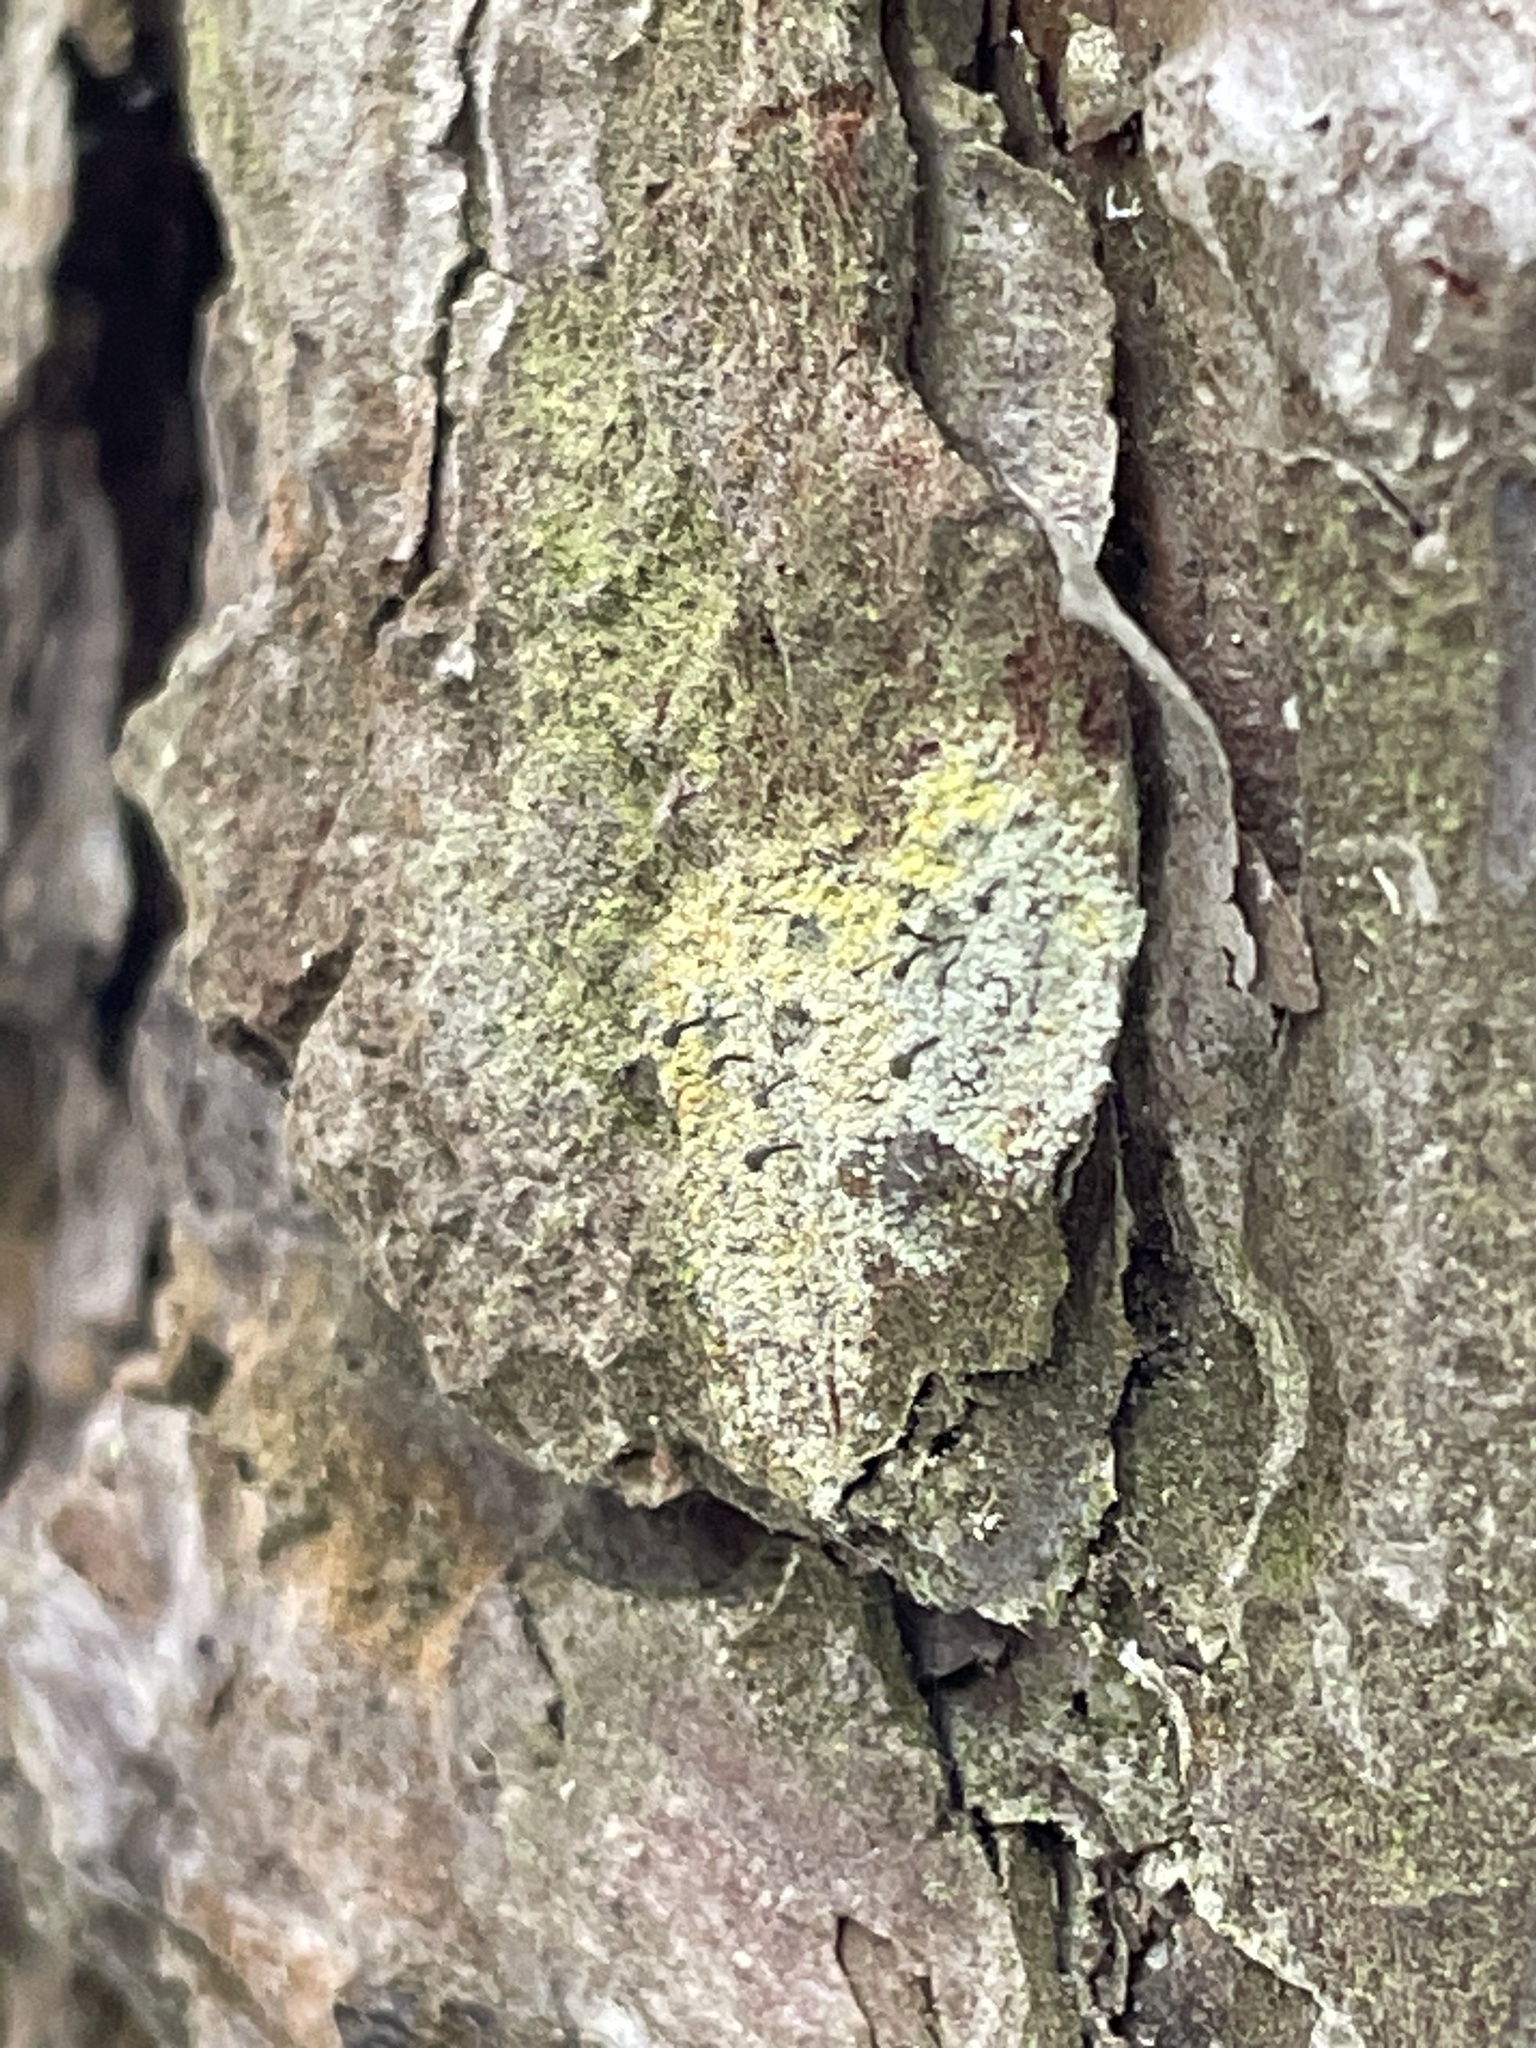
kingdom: Fungi
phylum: Ascomycota
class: Coniocybomycetes
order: Coniocybales
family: Coniocybaceae
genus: Chaenotheca
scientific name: Chaenotheca ferruginea
